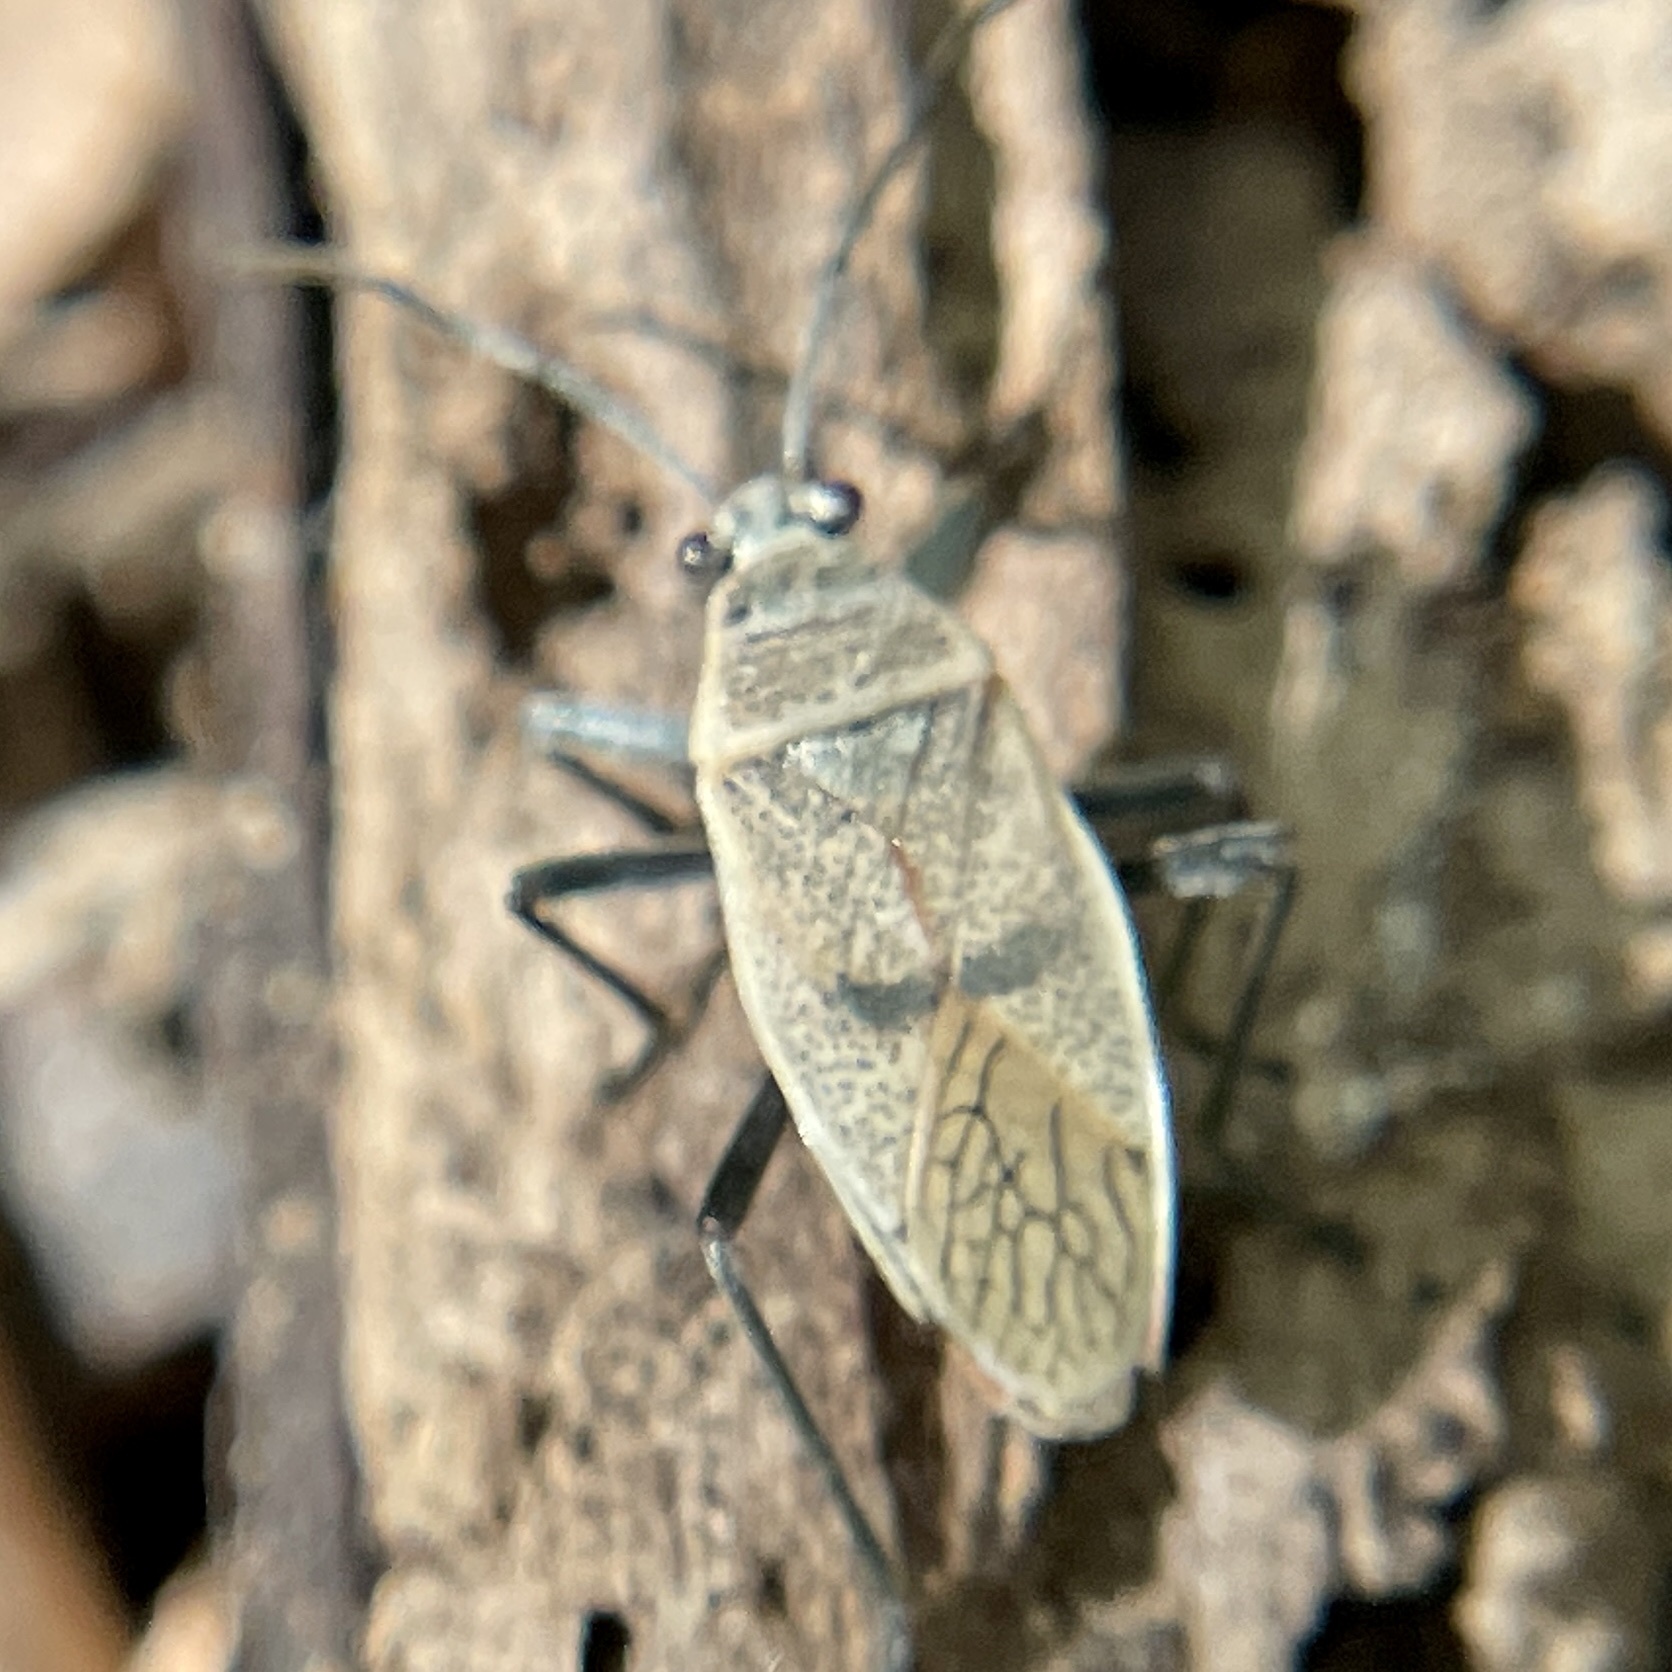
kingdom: Animalia
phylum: Arthropoda
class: Insecta
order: Hemiptera
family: Largidae
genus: Largus
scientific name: Largus maculatus
